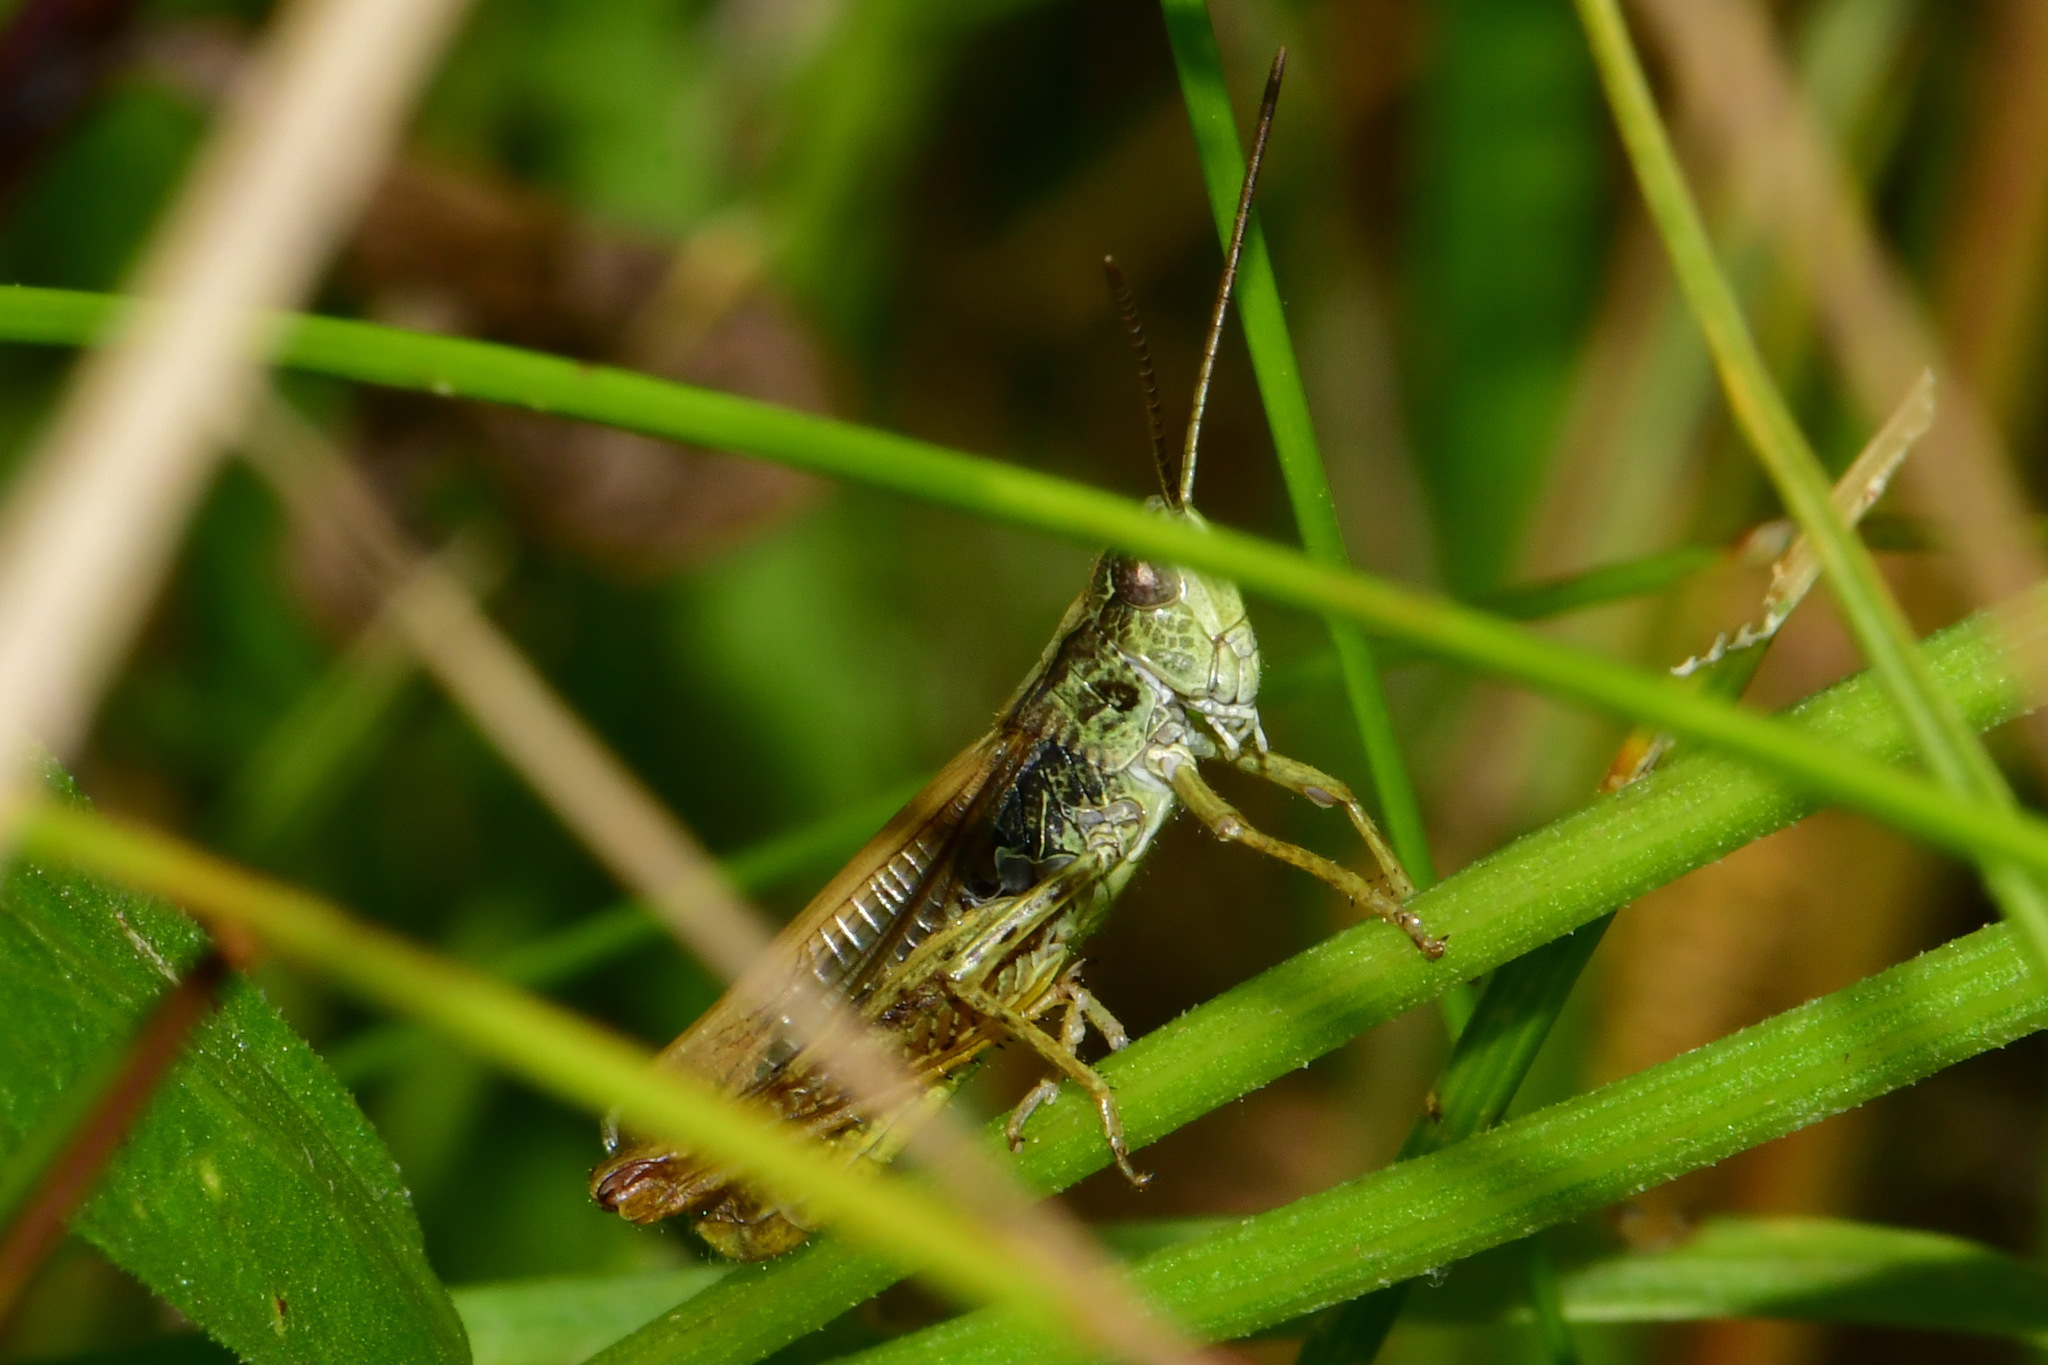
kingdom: Animalia
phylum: Arthropoda
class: Insecta
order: Orthoptera
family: Acrididae
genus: Chorthippus
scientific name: Chorthippus apricarius
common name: Upland field grasshopper
